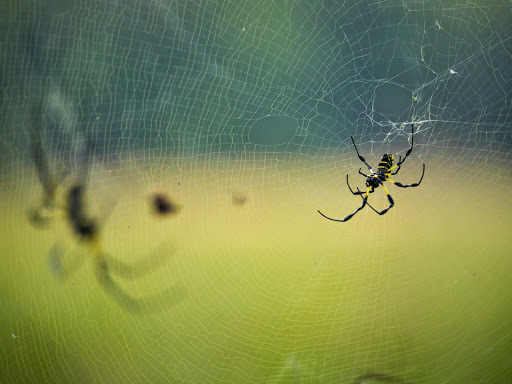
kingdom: Animalia
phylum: Arthropoda
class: Arachnida
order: Araneae
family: Araneidae
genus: Trichonephila
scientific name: Trichonephila turneri
